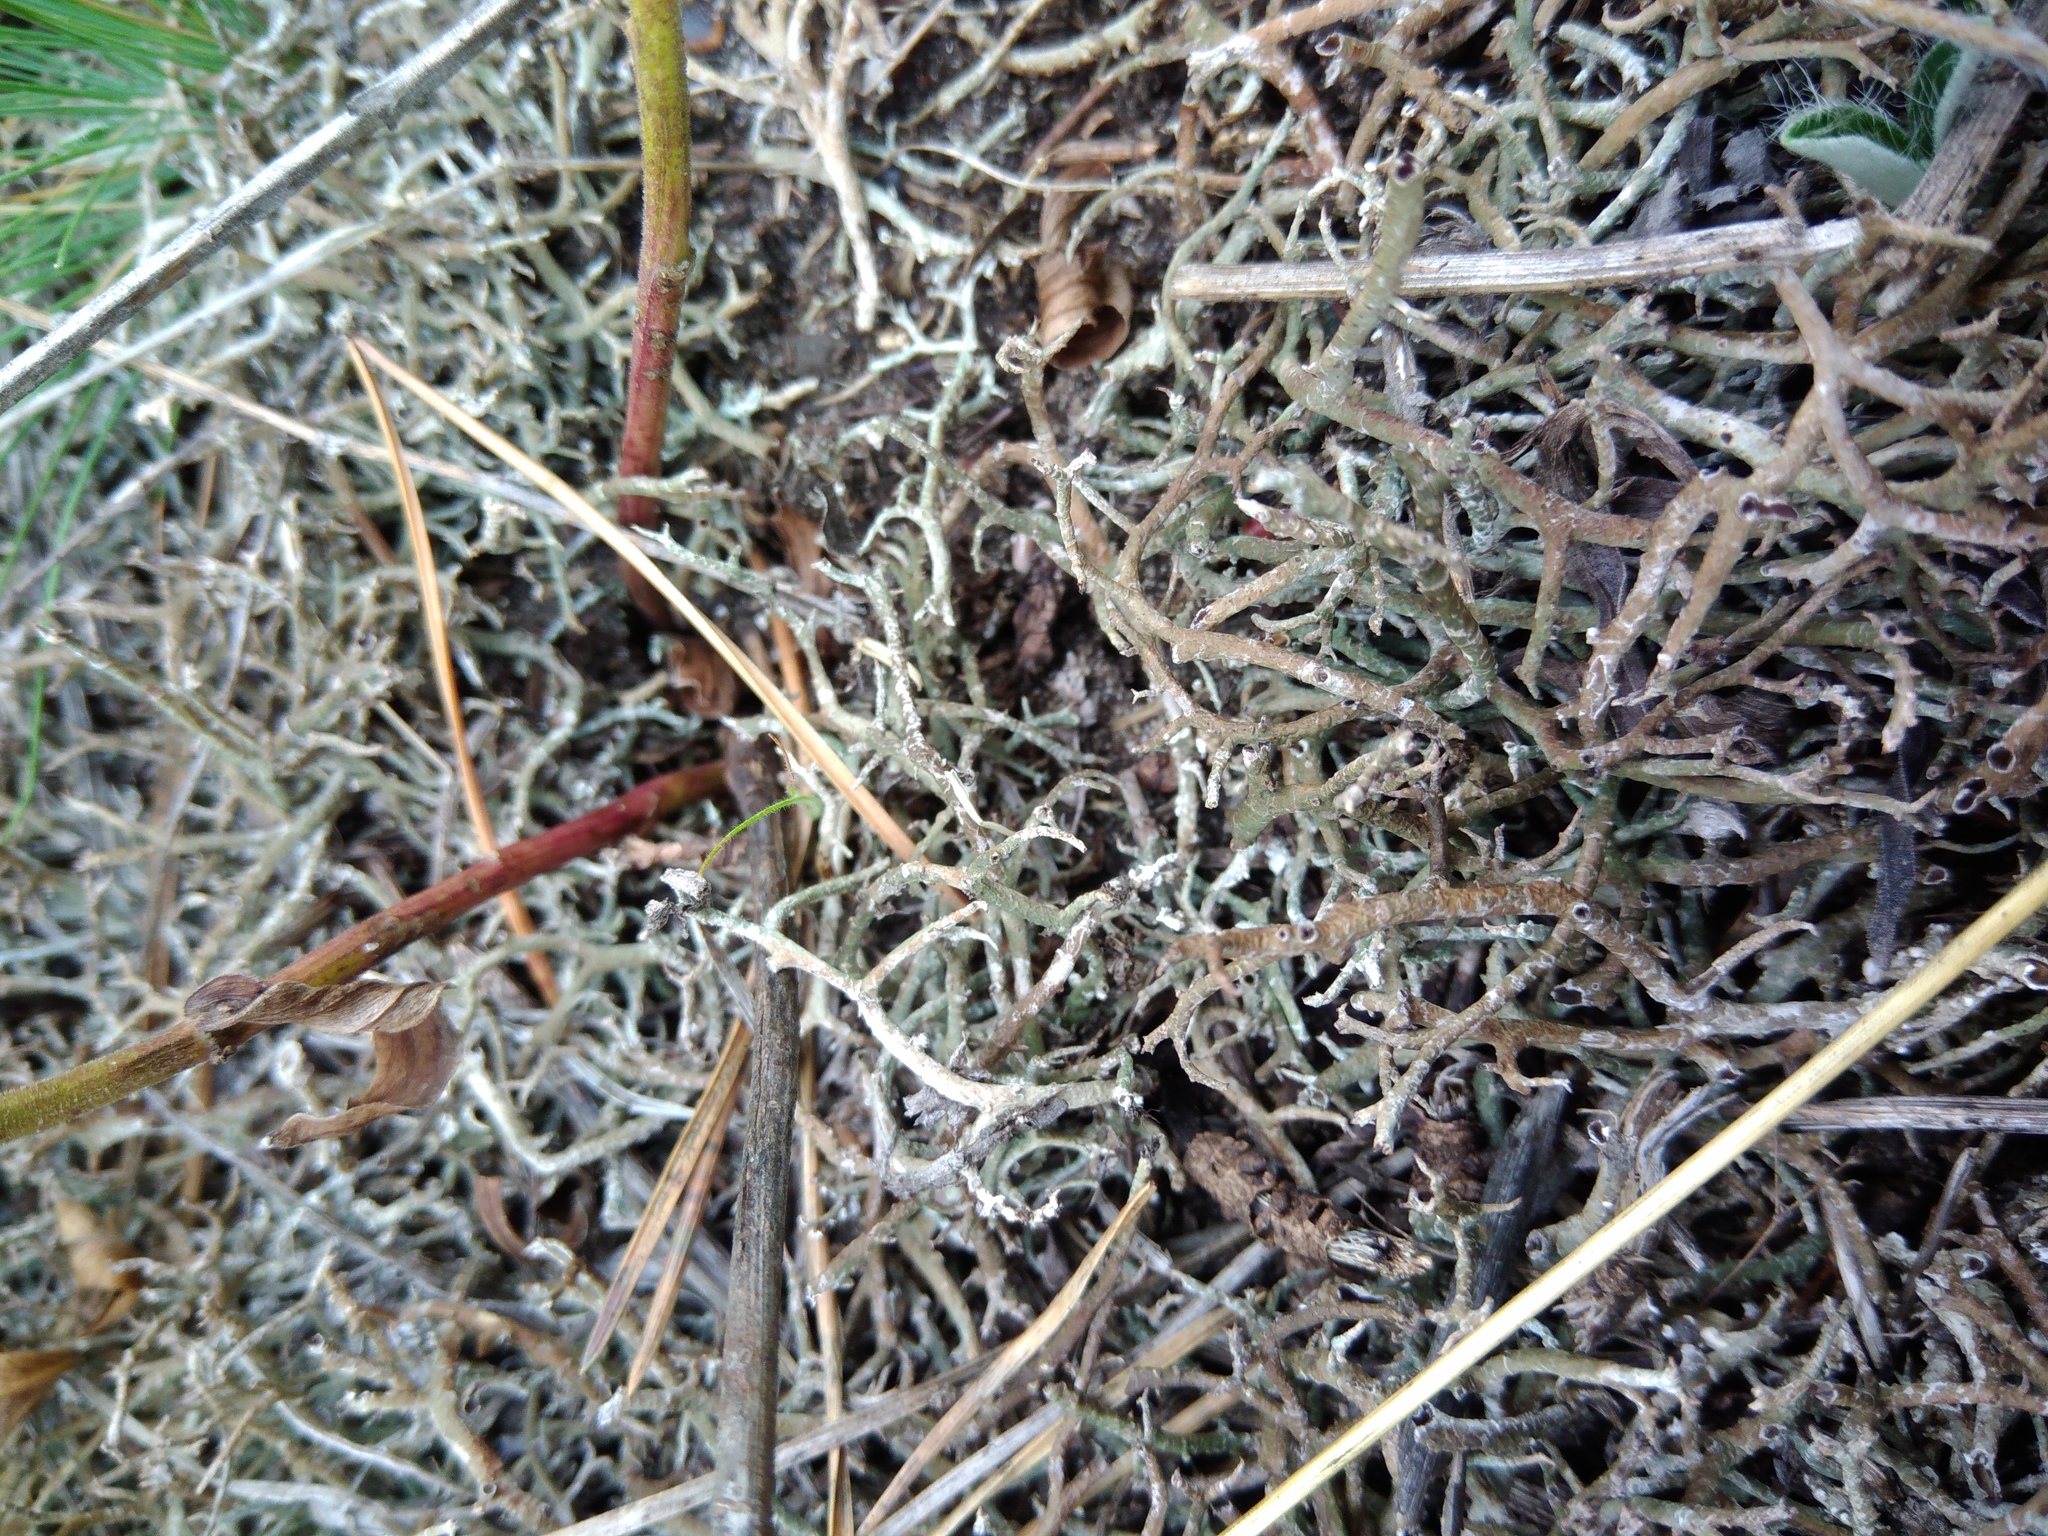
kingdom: Fungi
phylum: Ascomycota
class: Lecanoromycetes
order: Lecanorales
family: Cladoniaceae
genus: Cladonia
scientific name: Cladonia rangiformis
